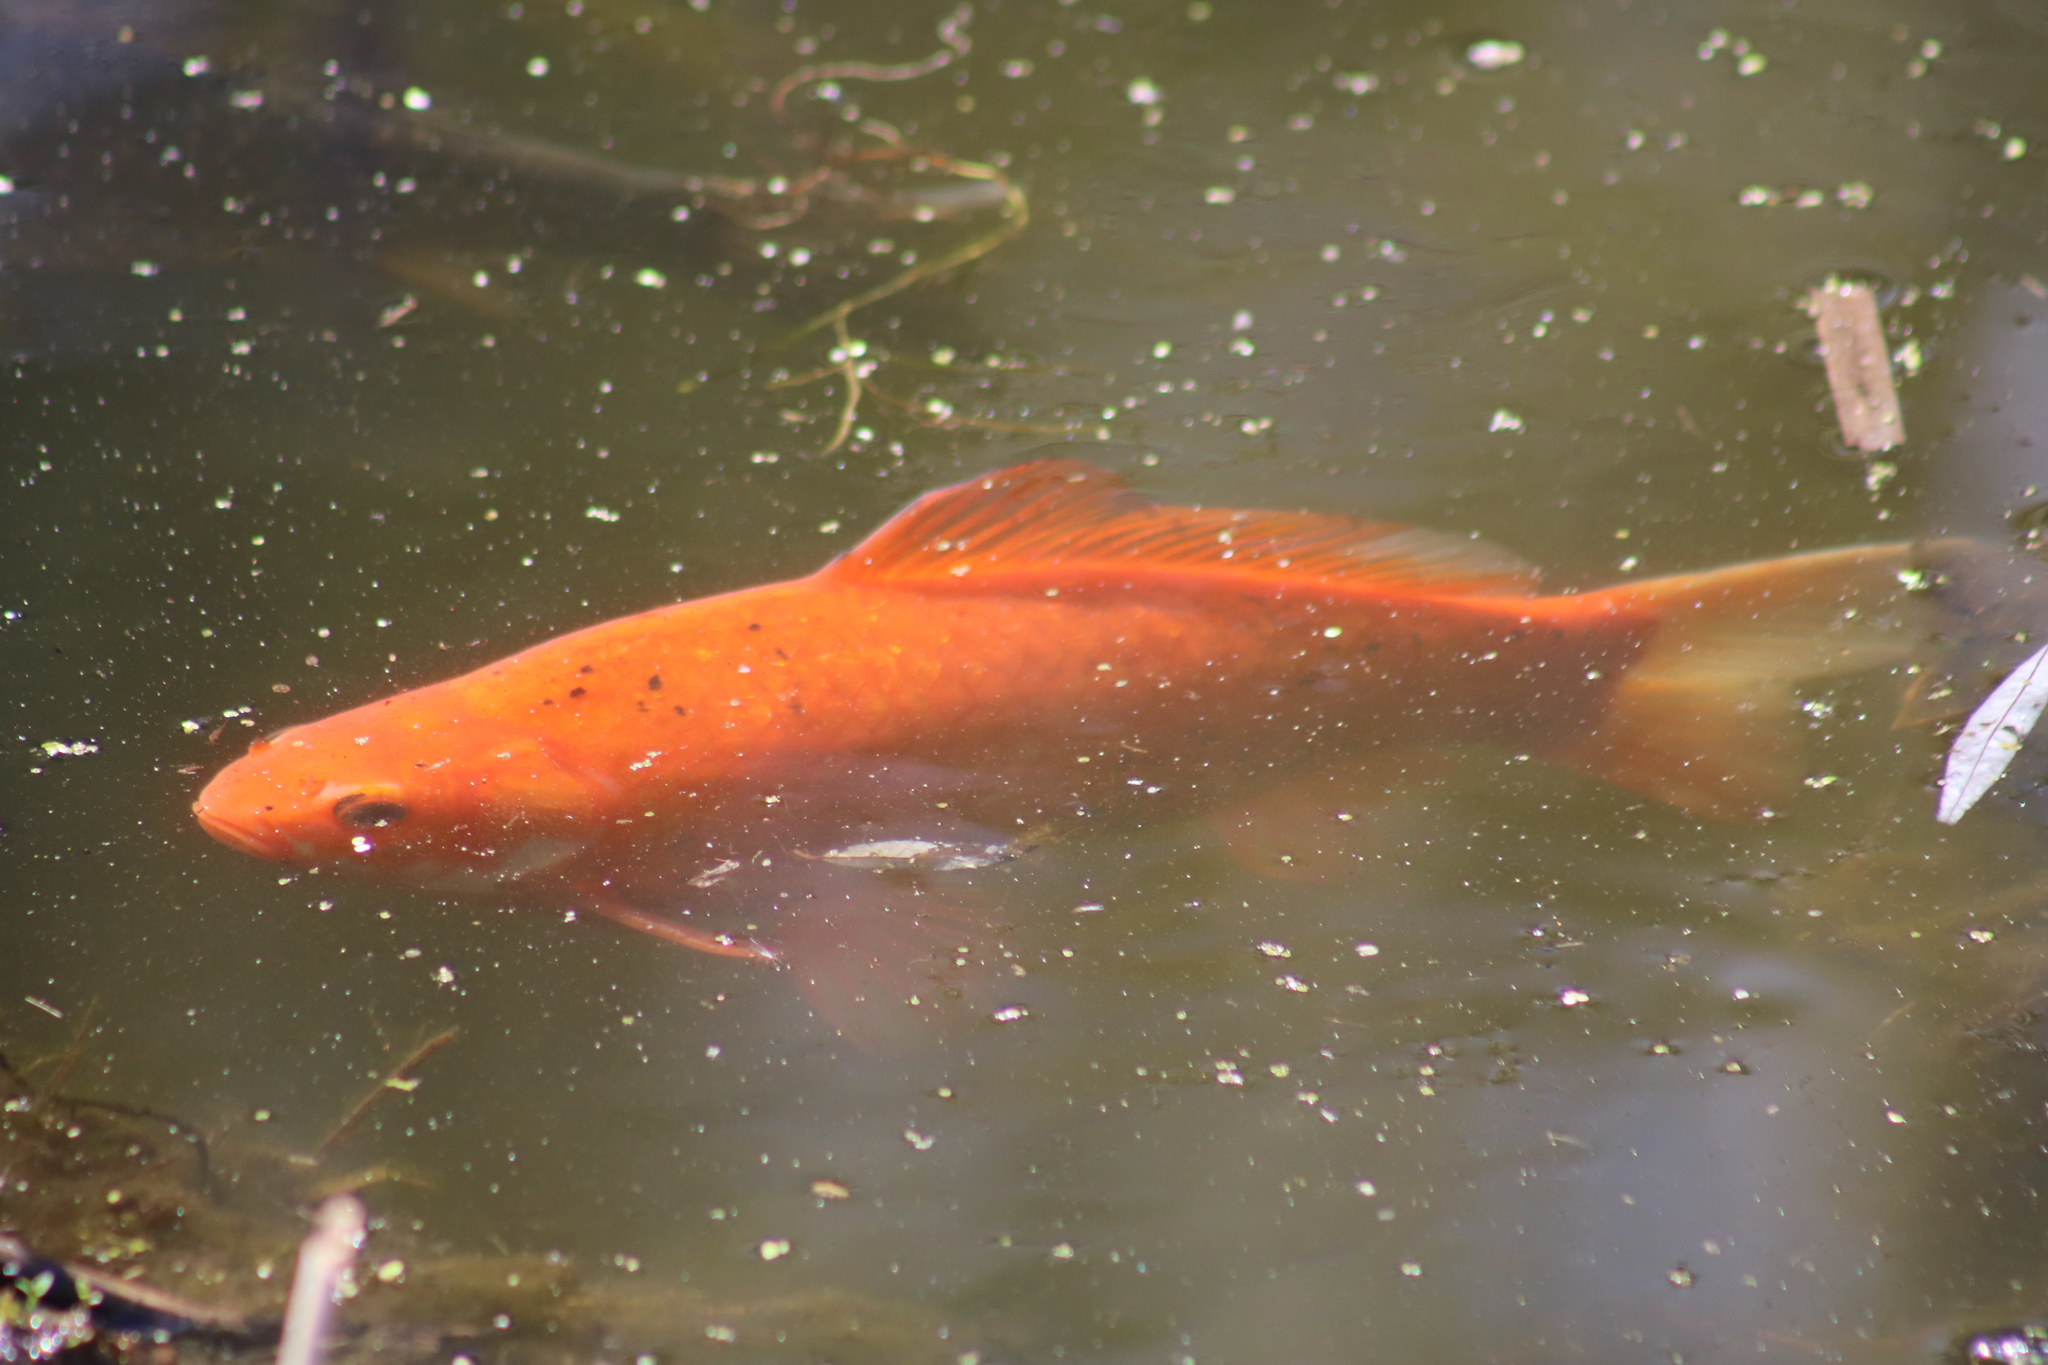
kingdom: Animalia
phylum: Chordata
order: Cypriniformes
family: Cyprinidae
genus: Carassius
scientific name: Carassius auratus
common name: Goldfish
